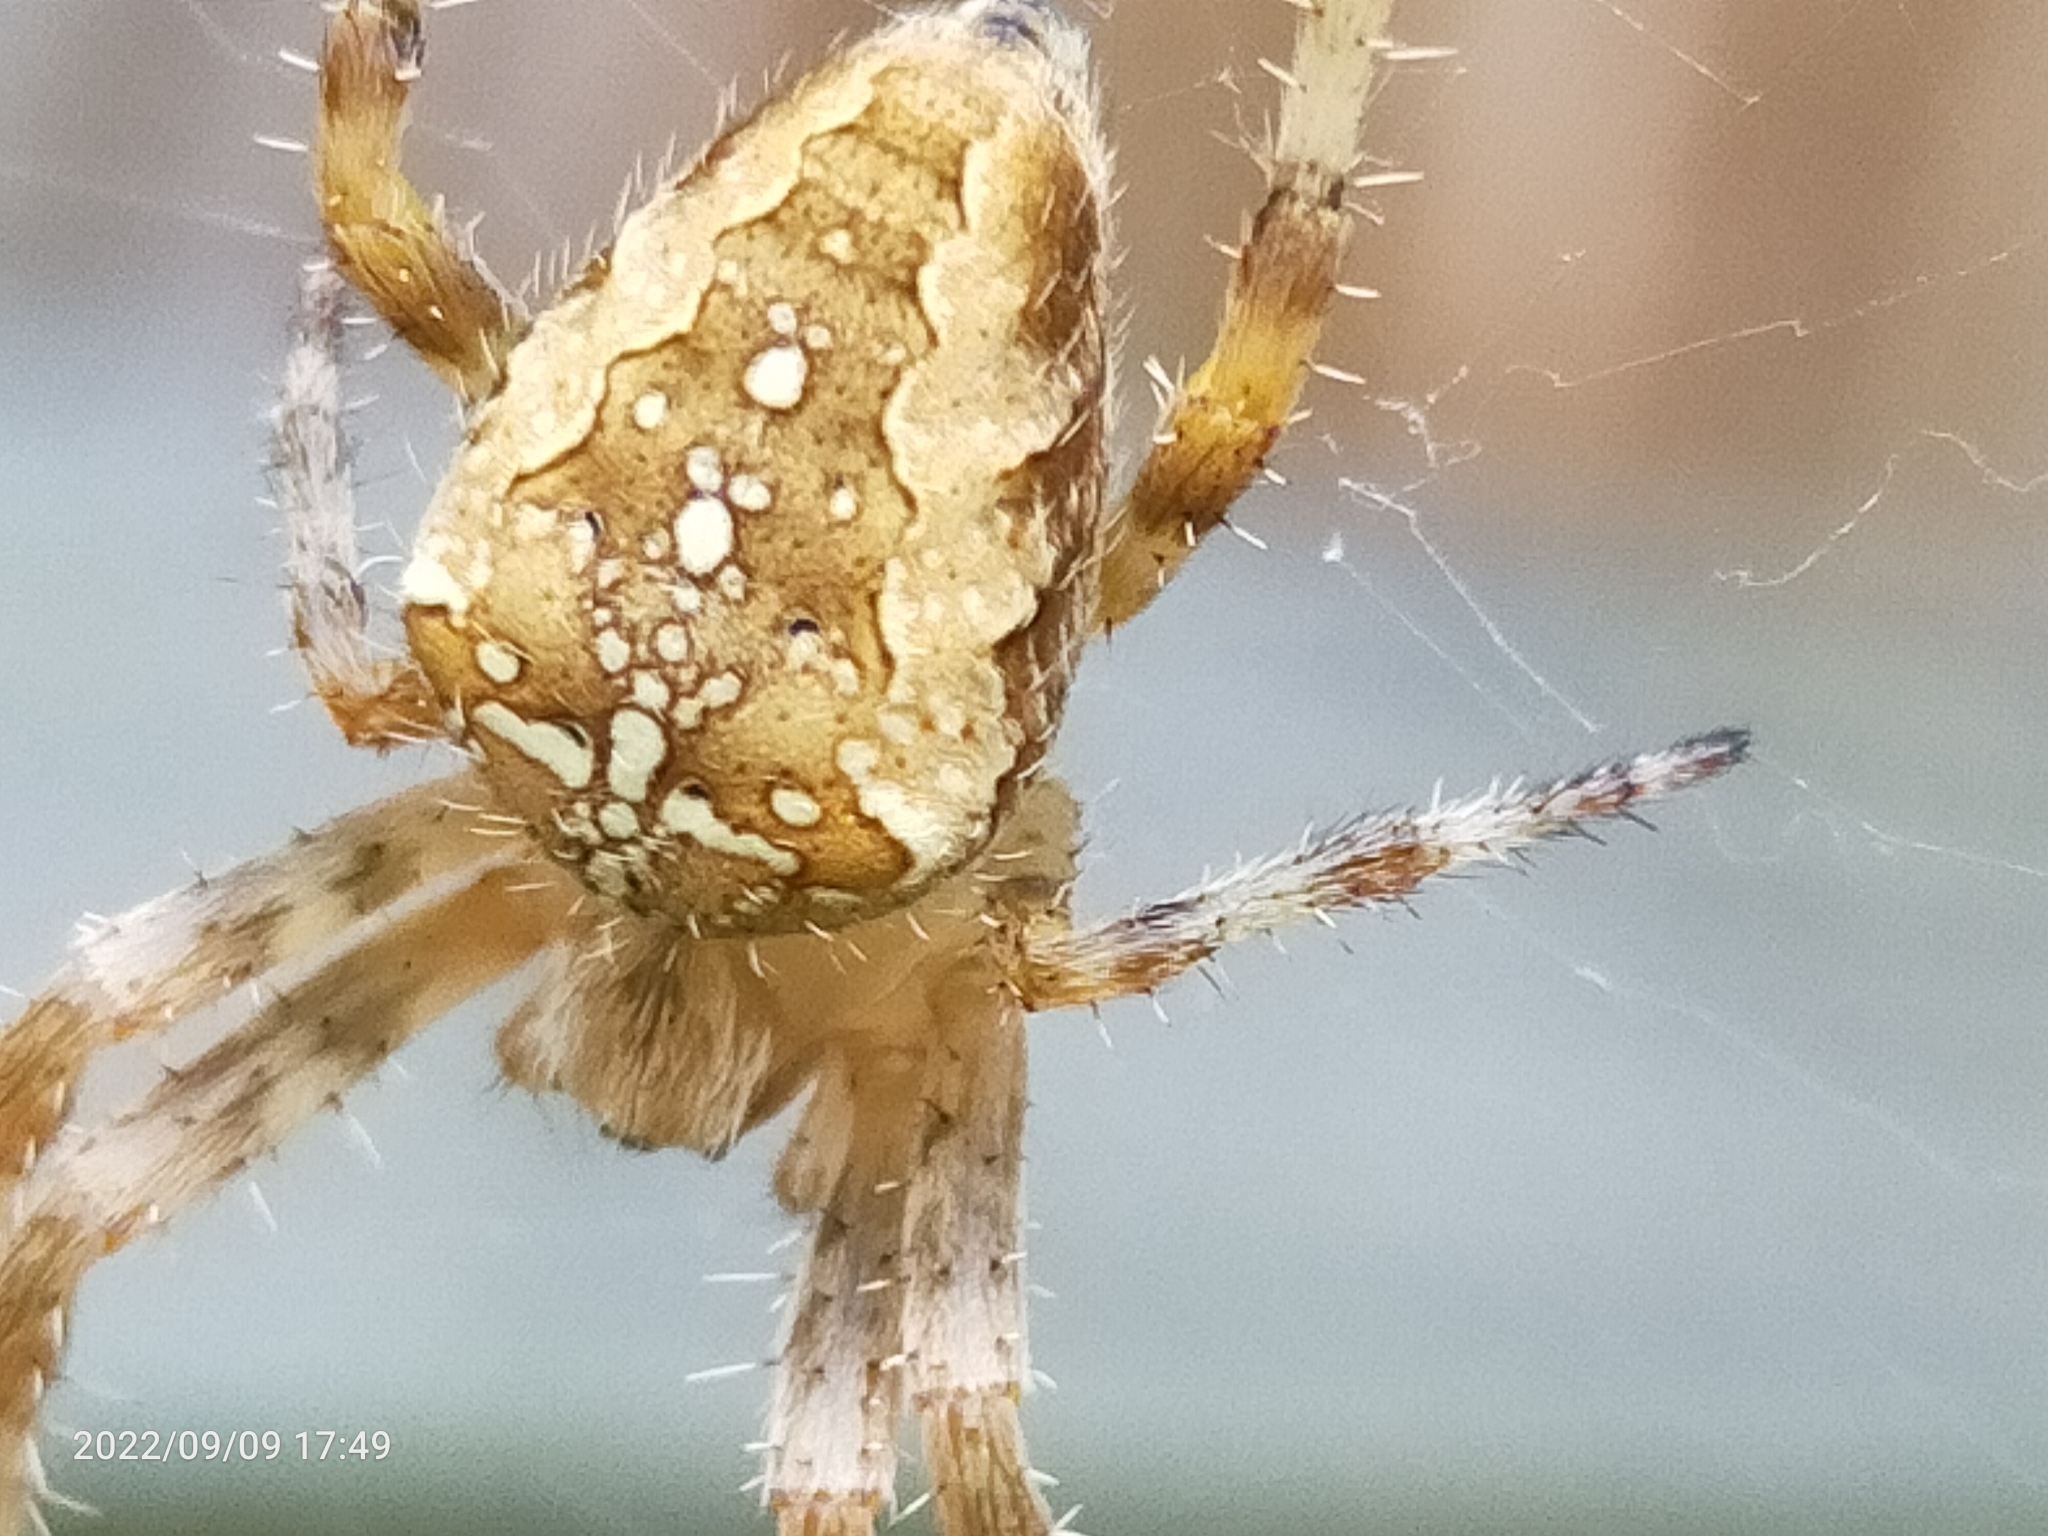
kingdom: Animalia
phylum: Arthropoda
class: Arachnida
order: Araneae
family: Araneidae
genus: Araneus
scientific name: Araneus diadematus
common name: Cross orbweaver
